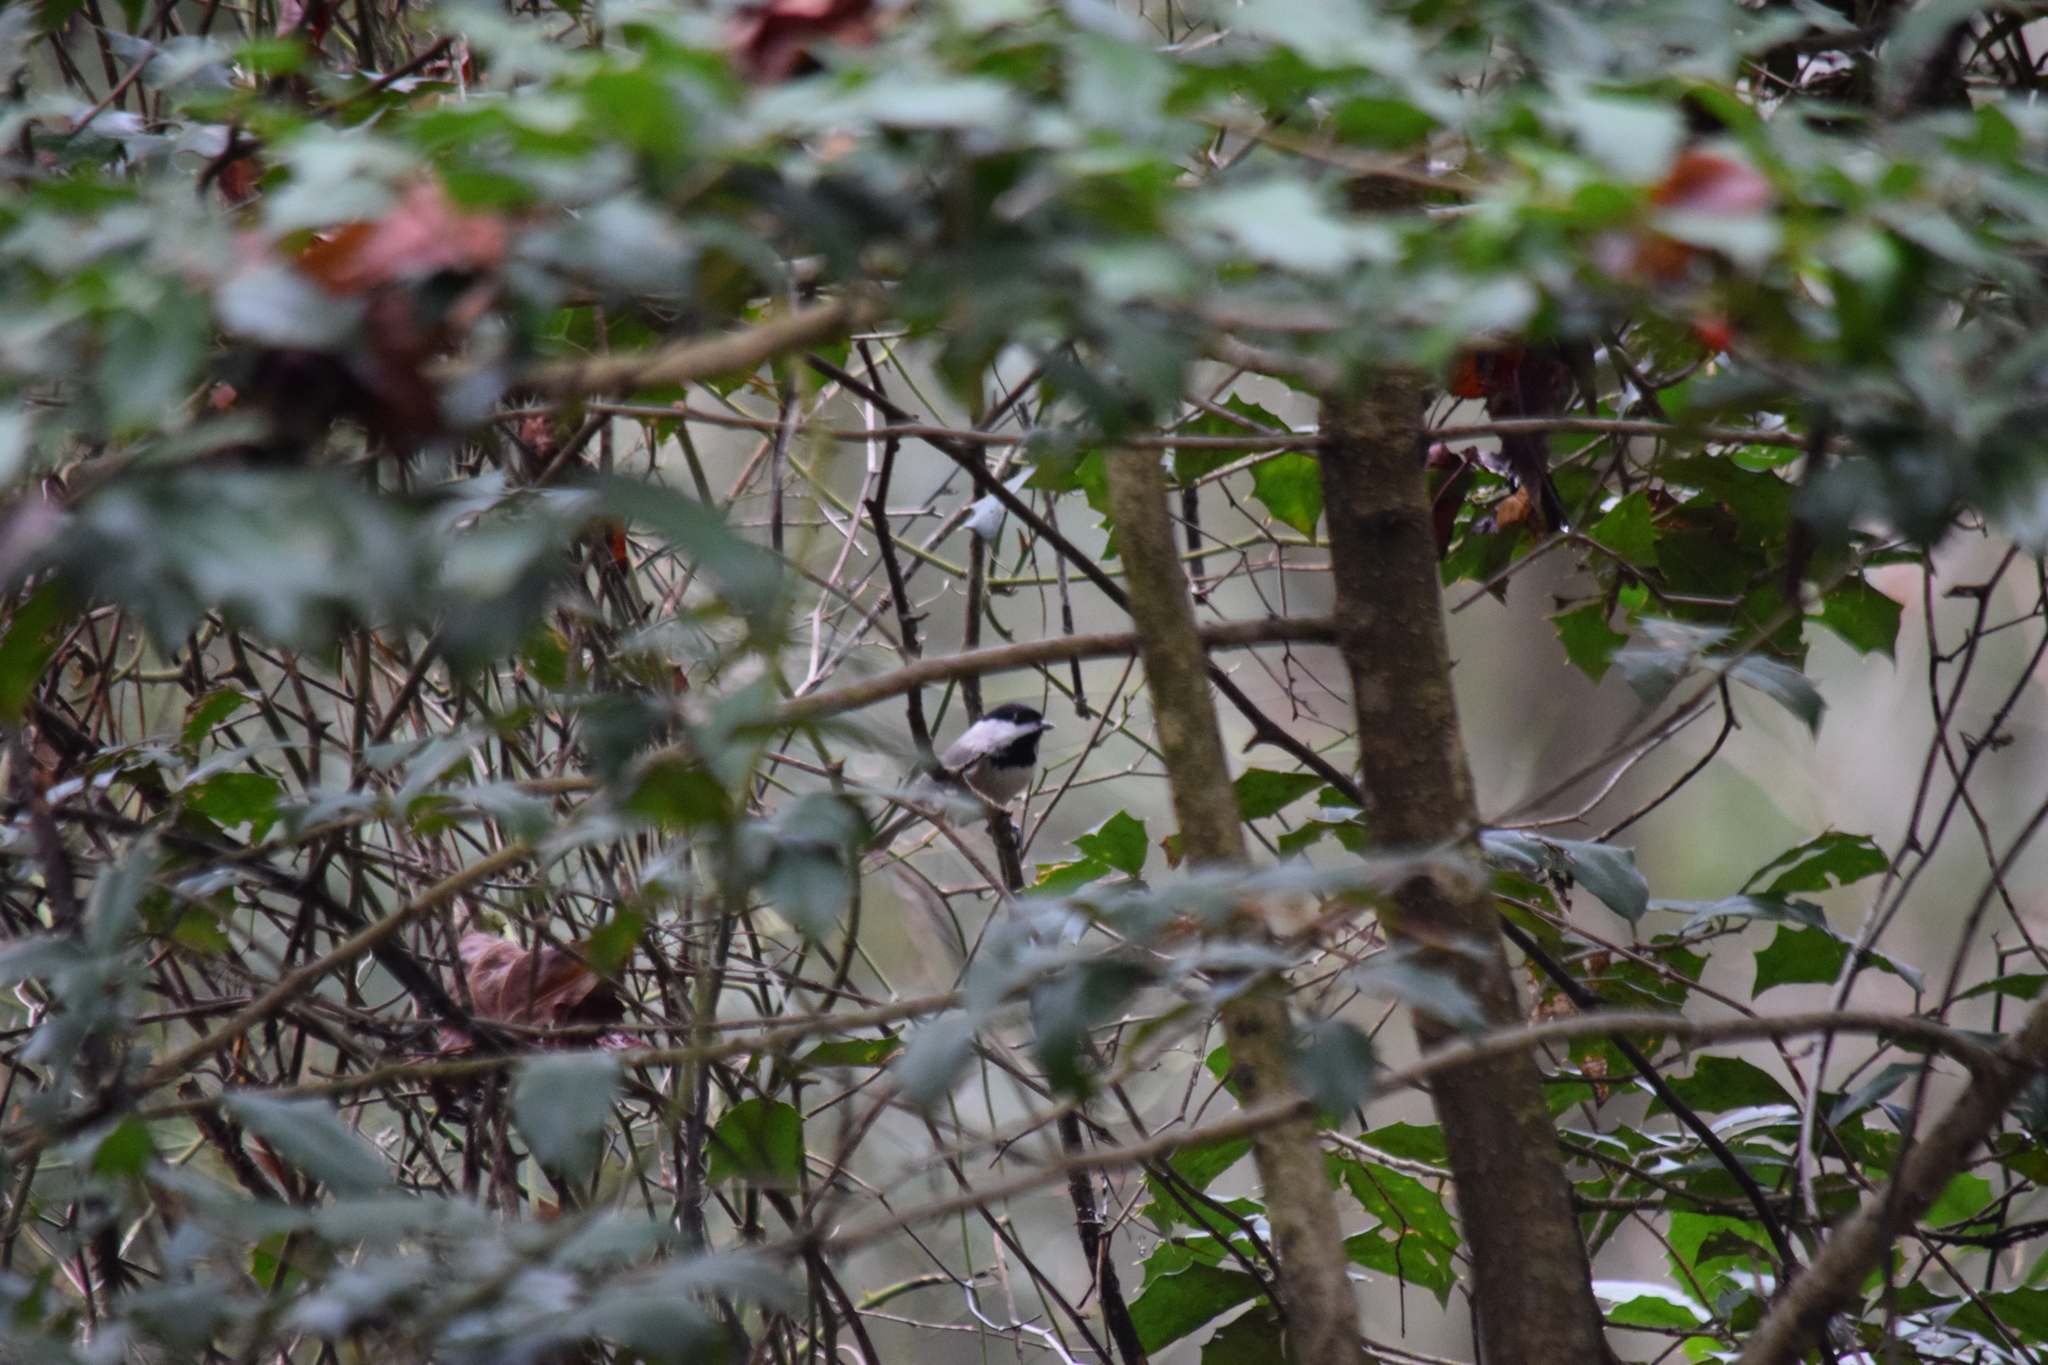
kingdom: Animalia
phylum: Chordata
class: Aves
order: Passeriformes
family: Paridae
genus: Poecile
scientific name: Poecile carolinensis
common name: Carolina chickadee
